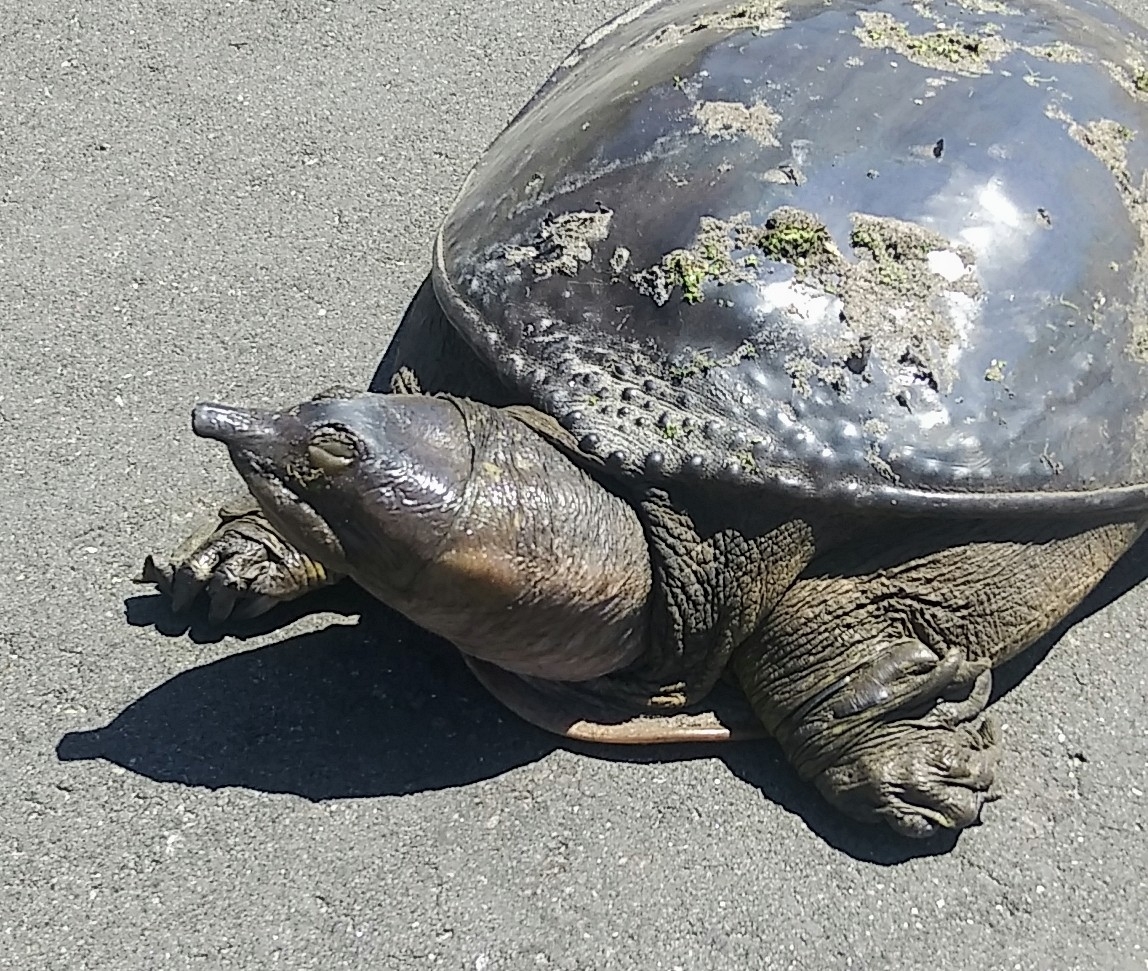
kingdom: Animalia
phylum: Chordata
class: Testudines
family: Trionychidae
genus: Apalone
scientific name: Apalone ferox
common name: Florida softshell turtle
